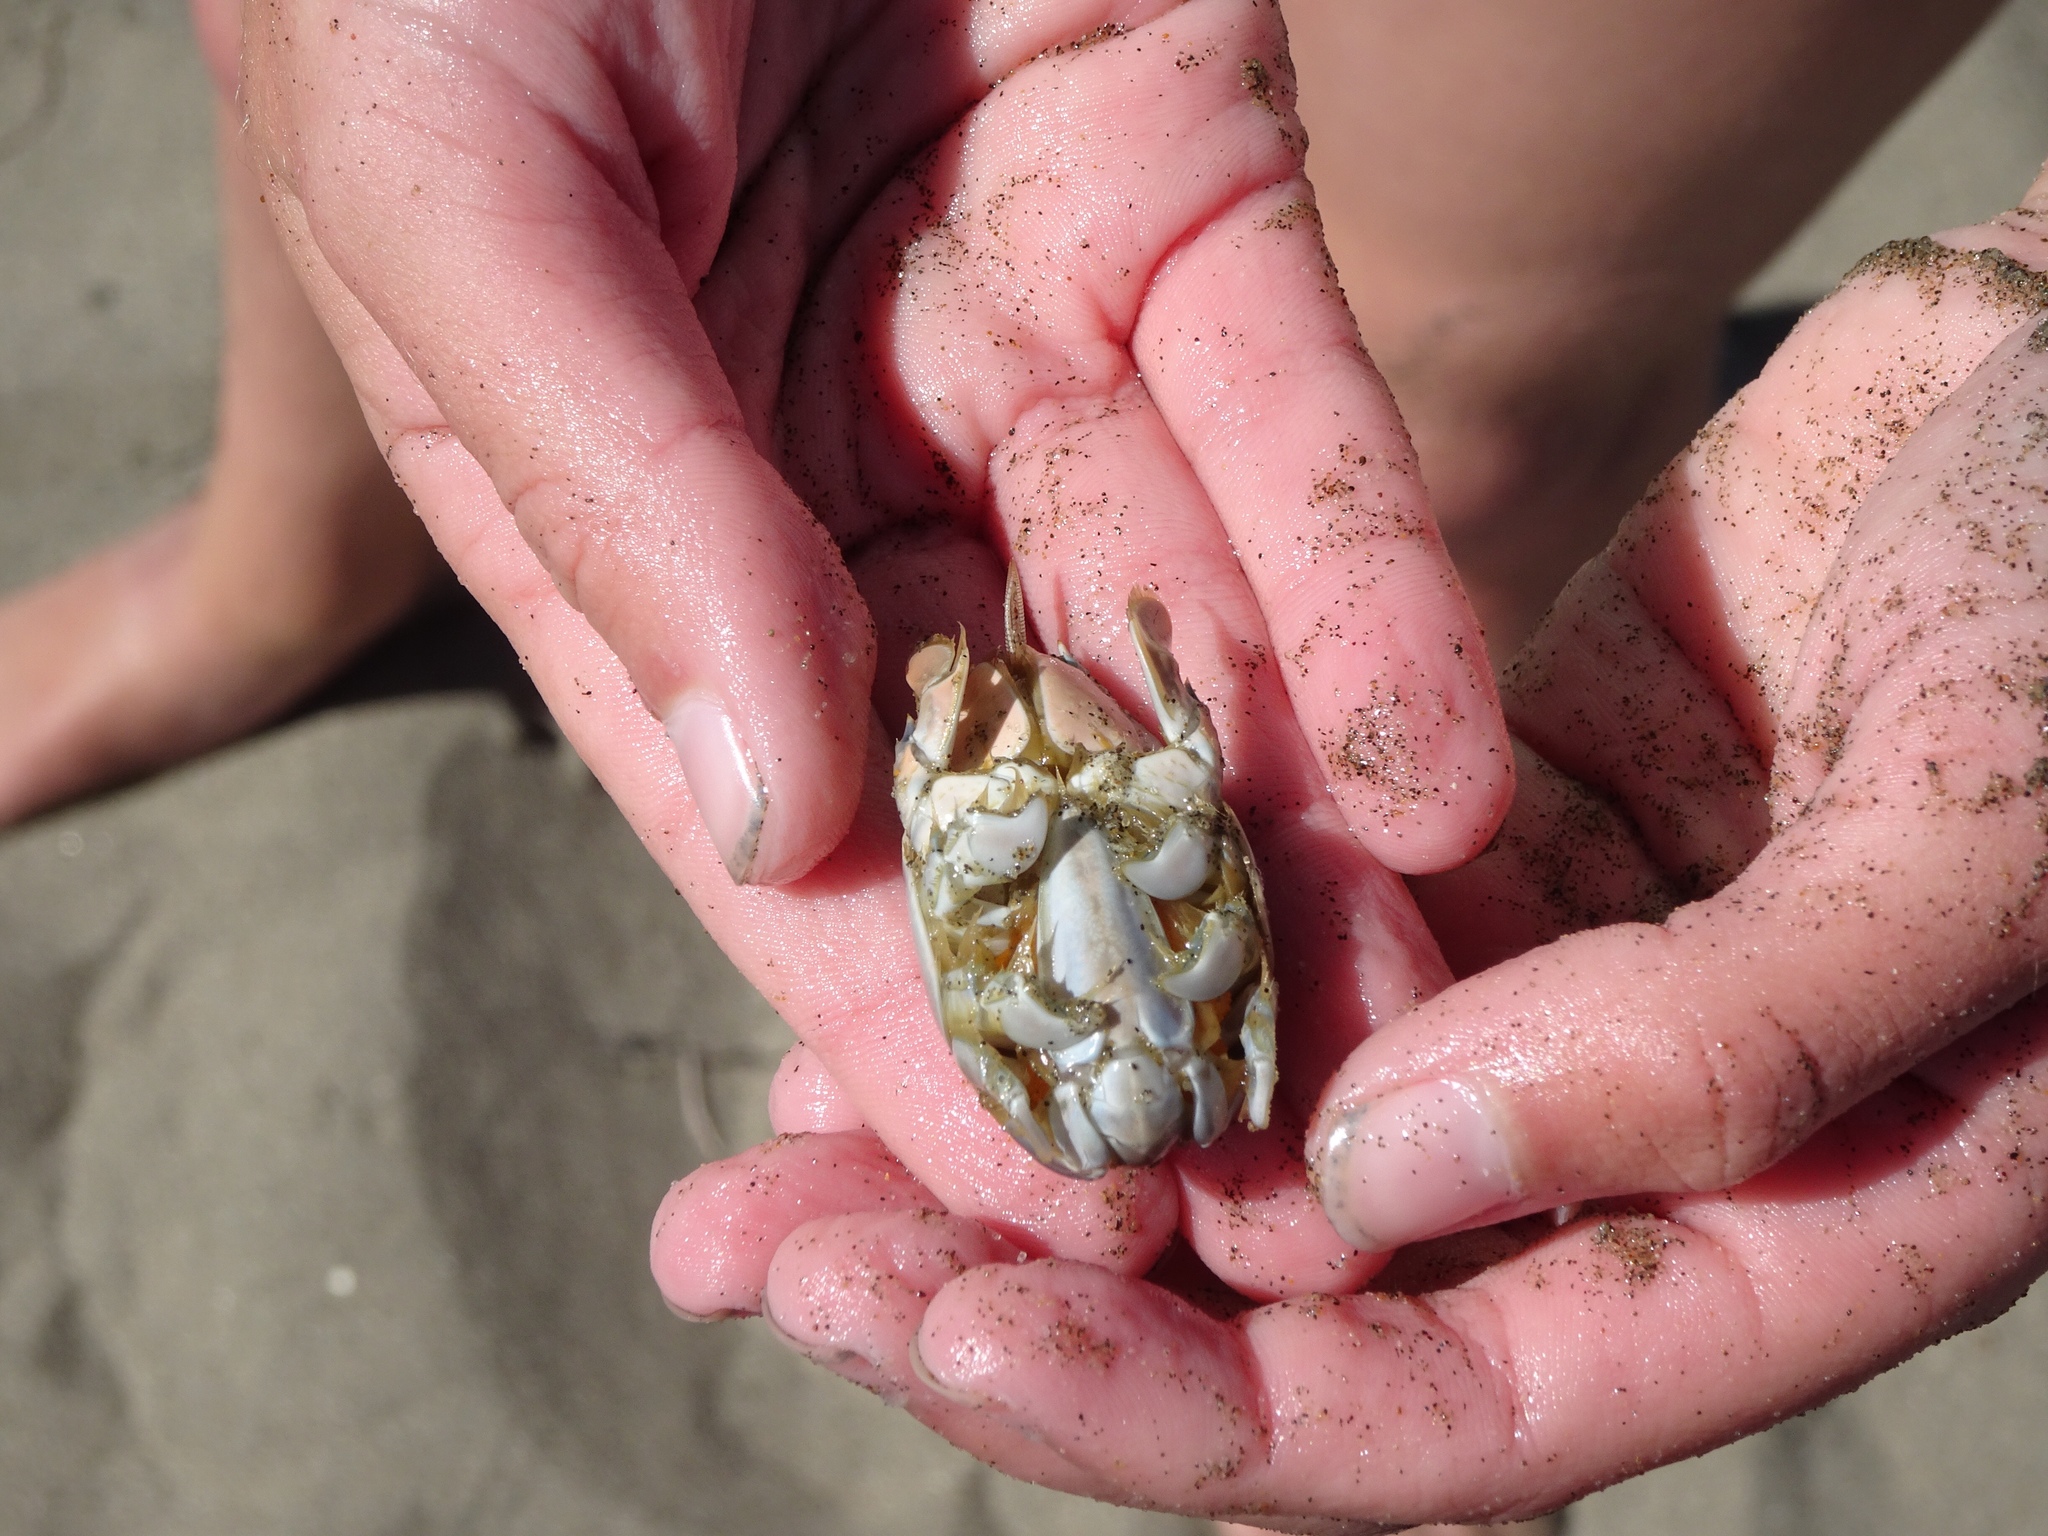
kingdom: Animalia
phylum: Arthropoda
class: Malacostraca
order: Decapoda
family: Hippidae
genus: Emerita
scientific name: Emerita analoga
